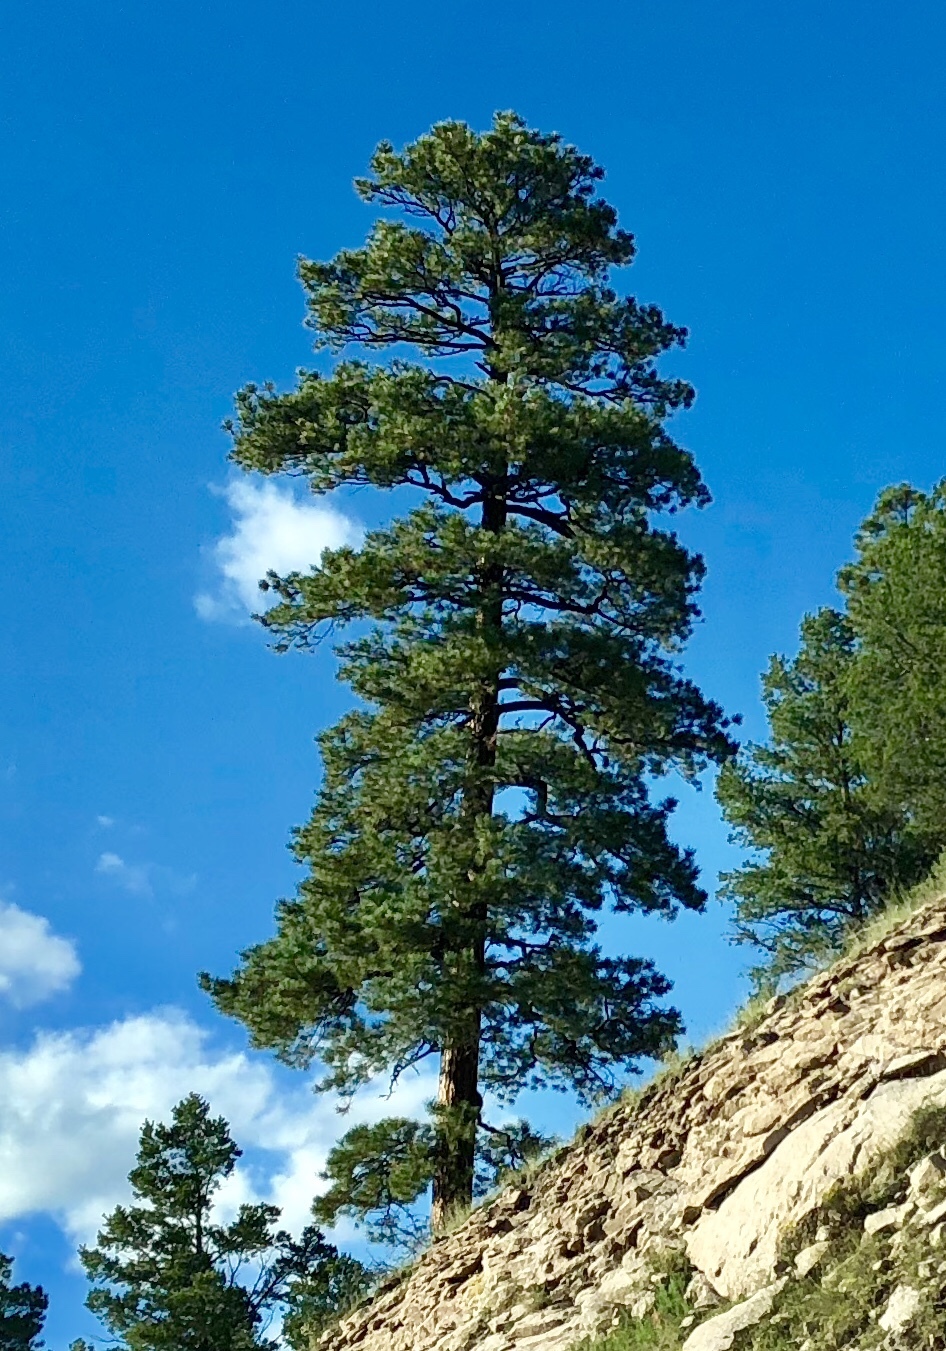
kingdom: Plantae
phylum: Tracheophyta
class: Pinopsida
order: Pinales
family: Pinaceae
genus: Pinus
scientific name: Pinus ponderosa
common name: Western yellow-pine
